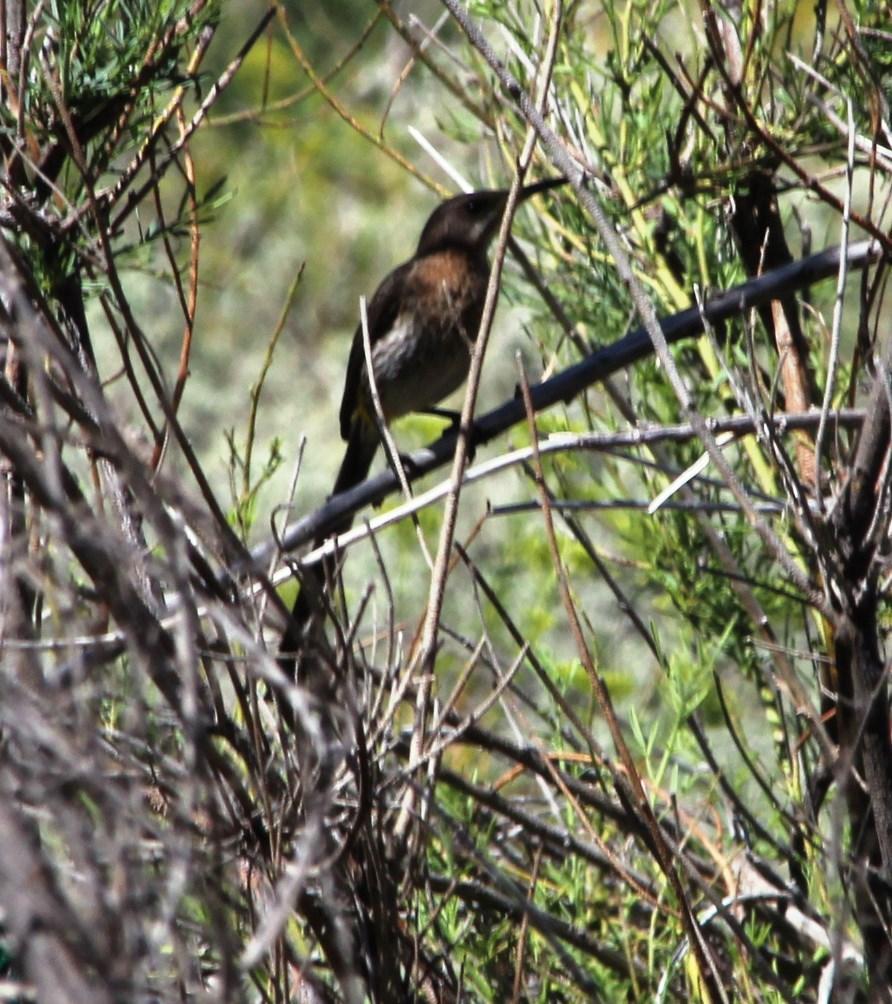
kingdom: Animalia
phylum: Chordata
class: Aves
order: Passeriformes
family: Promeropidae
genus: Promerops
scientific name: Promerops cafer
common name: Cape sugarbird
